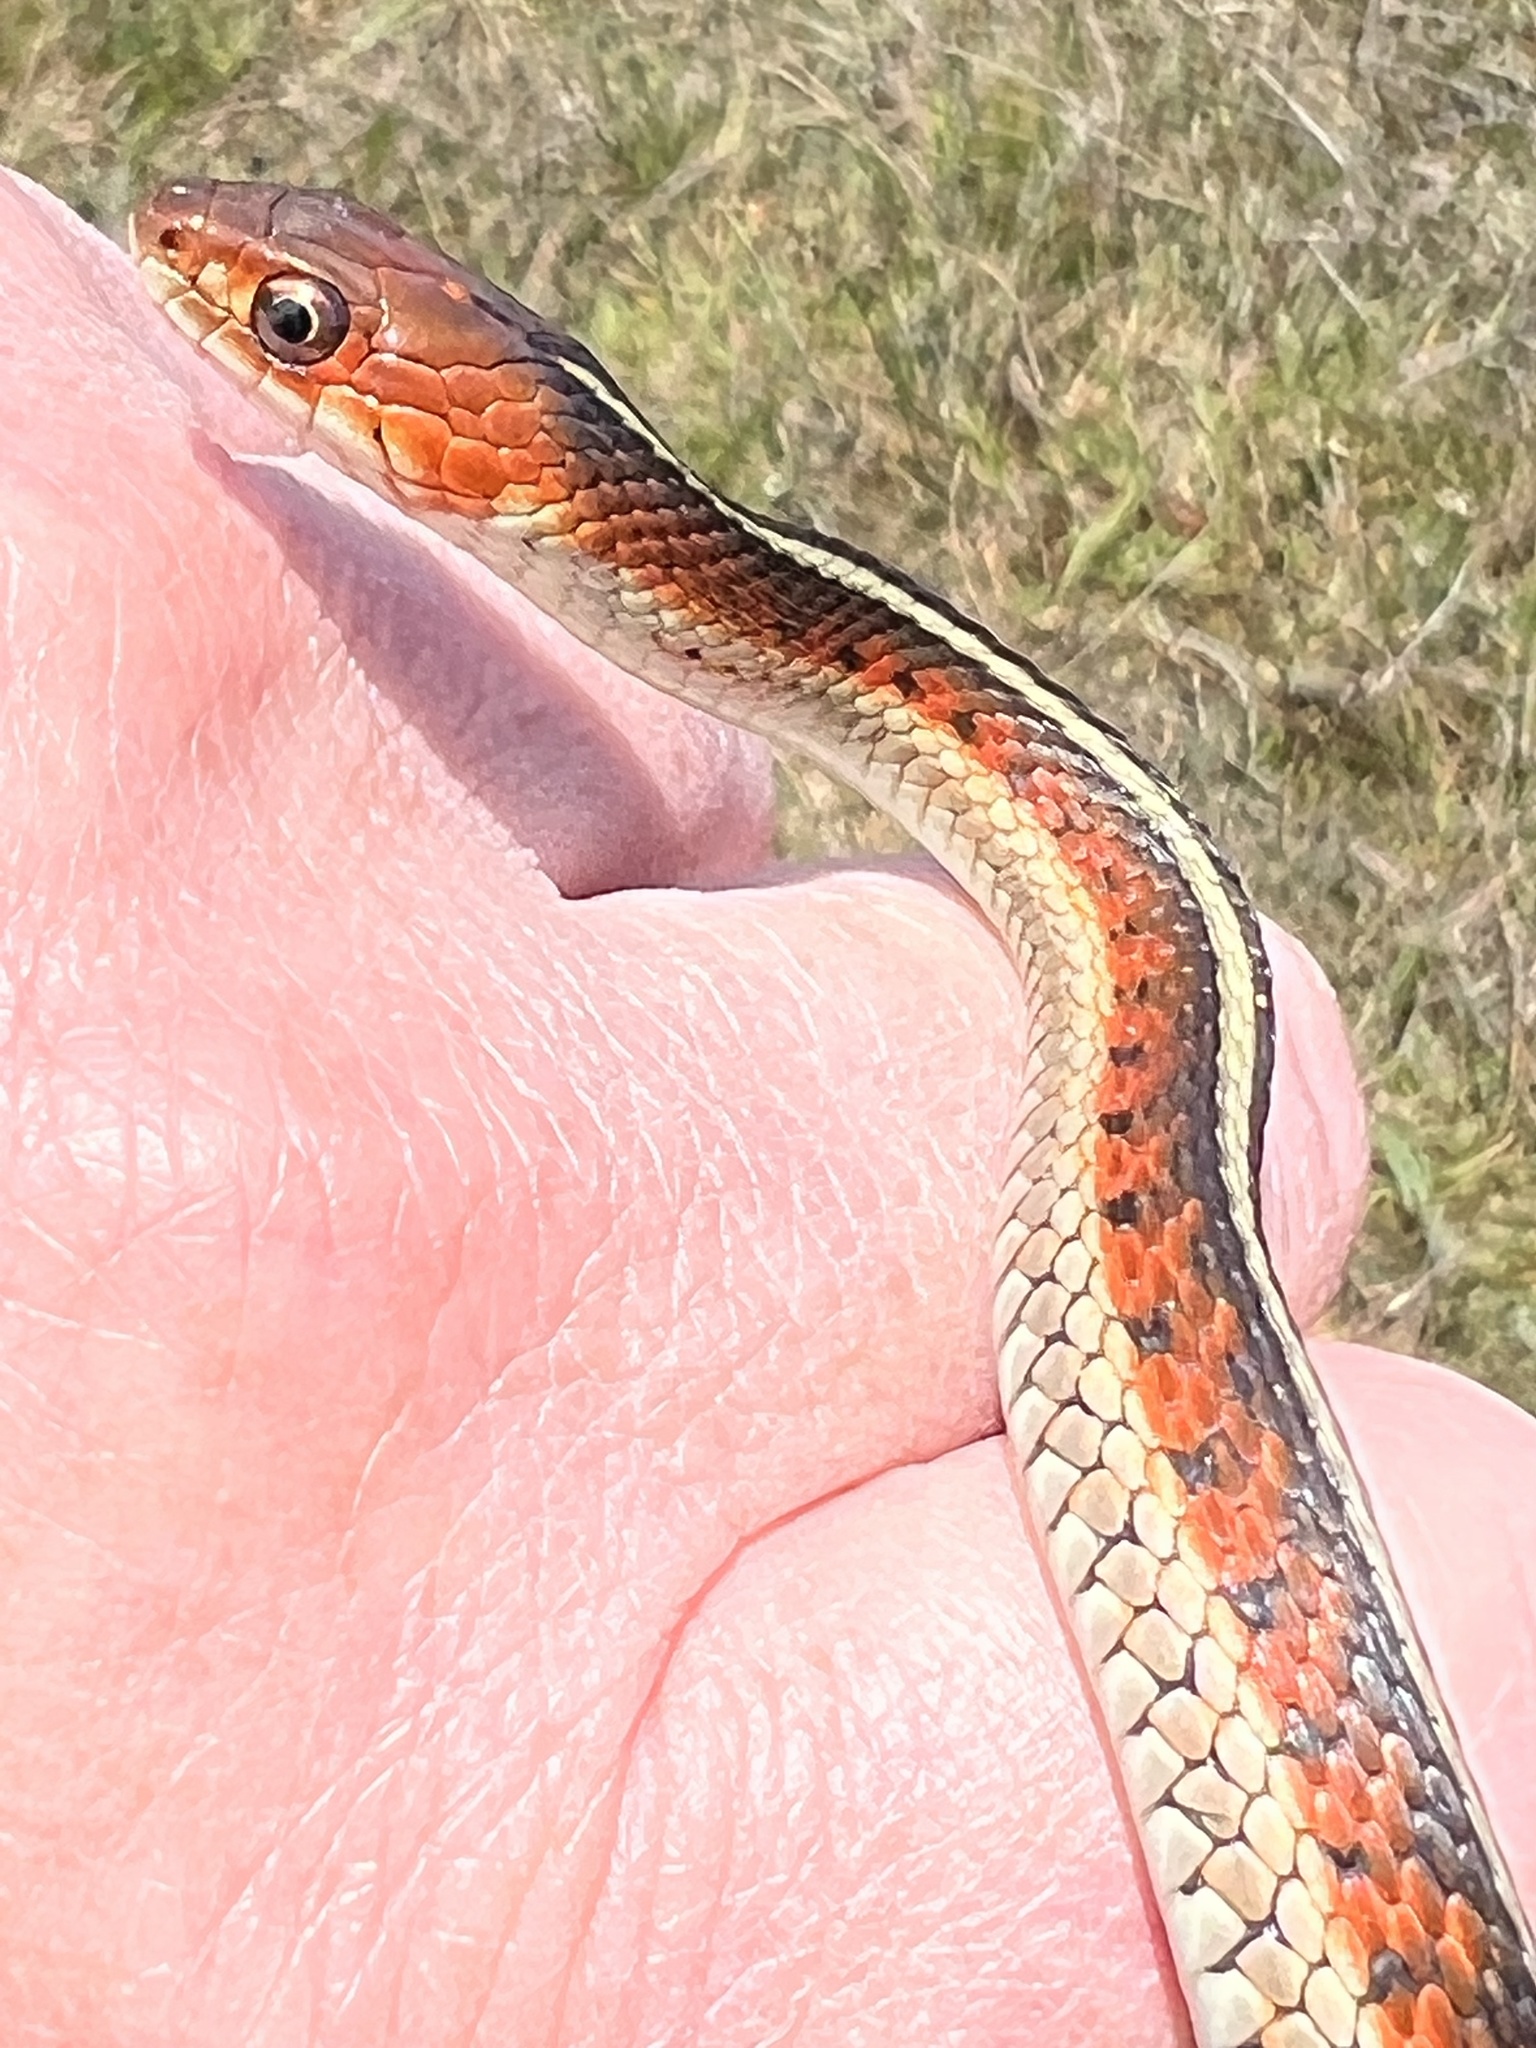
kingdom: Animalia
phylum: Chordata
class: Squamata
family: Colubridae
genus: Thamnophis
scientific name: Thamnophis sirtalis
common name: Common garter snake
